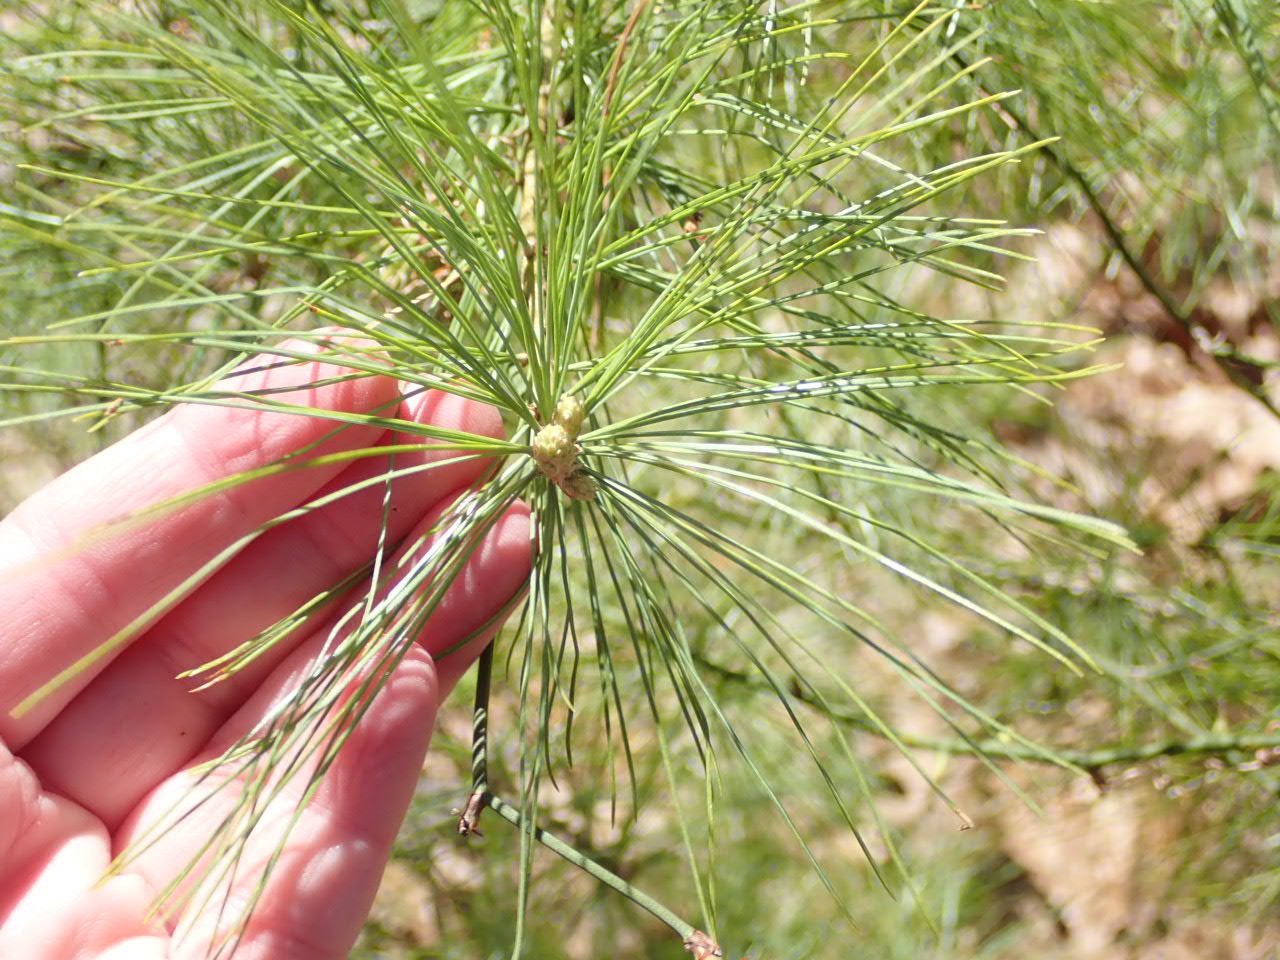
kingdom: Plantae
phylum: Tracheophyta
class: Pinopsida
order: Pinales
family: Pinaceae
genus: Pinus
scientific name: Pinus strobus
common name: Weymouth pine
